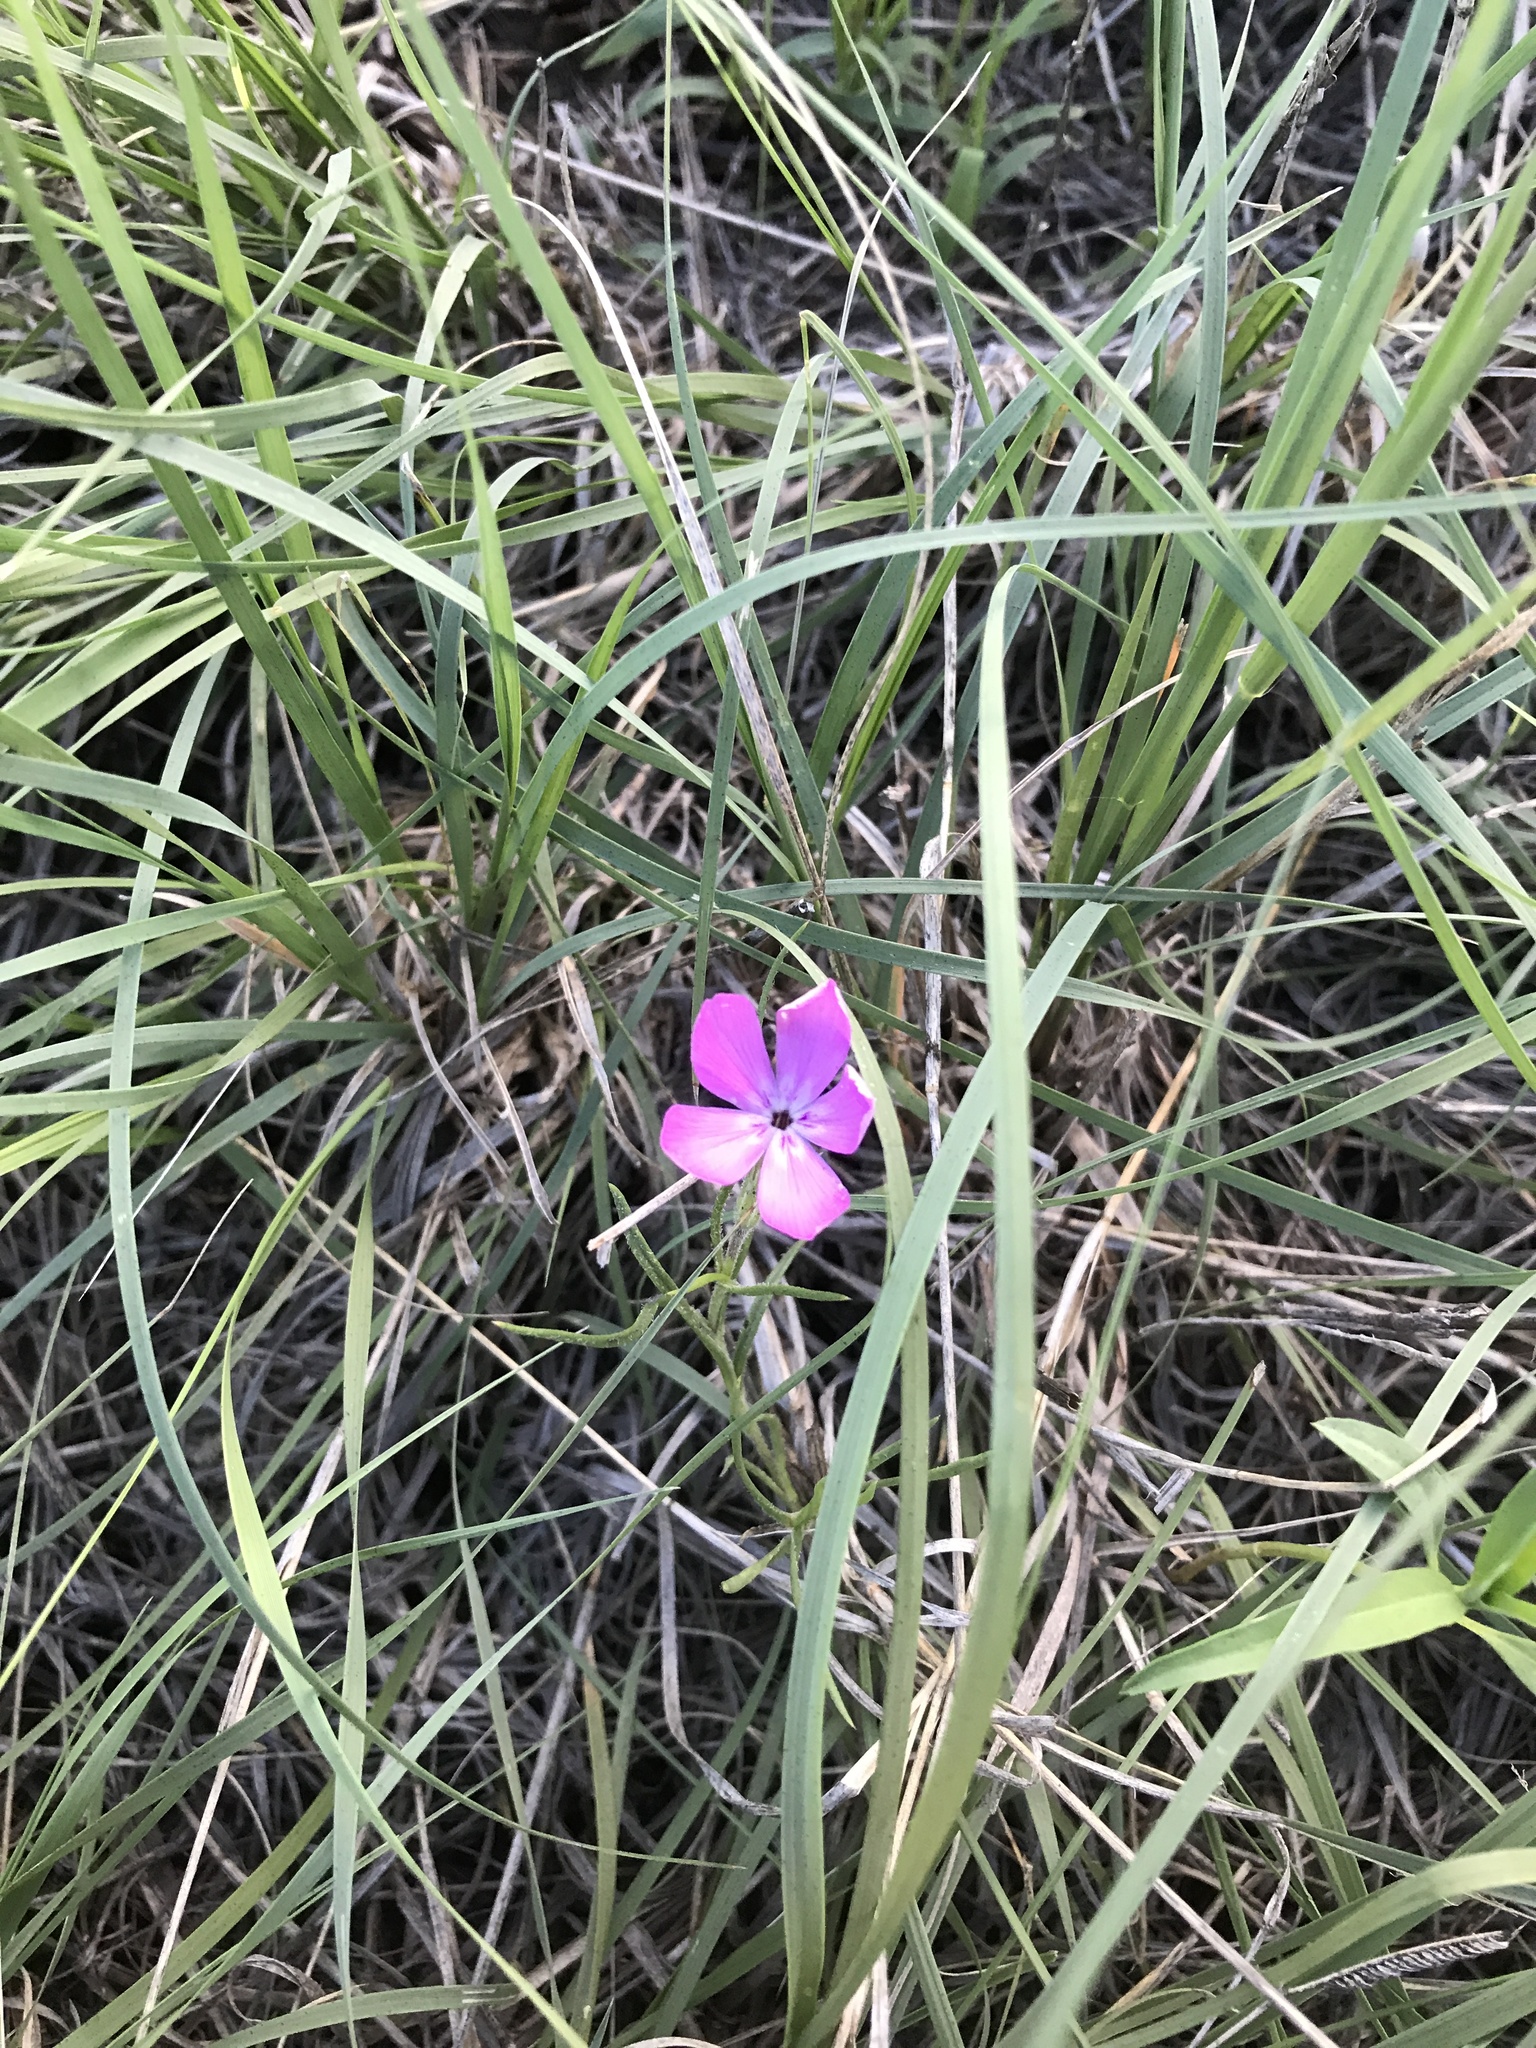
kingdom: Plantae
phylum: Tracheophyta
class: Magnoliopsida
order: Ericales
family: Polemoniaceae
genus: Phlox
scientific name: Phlox nana
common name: Santa fe phlox
